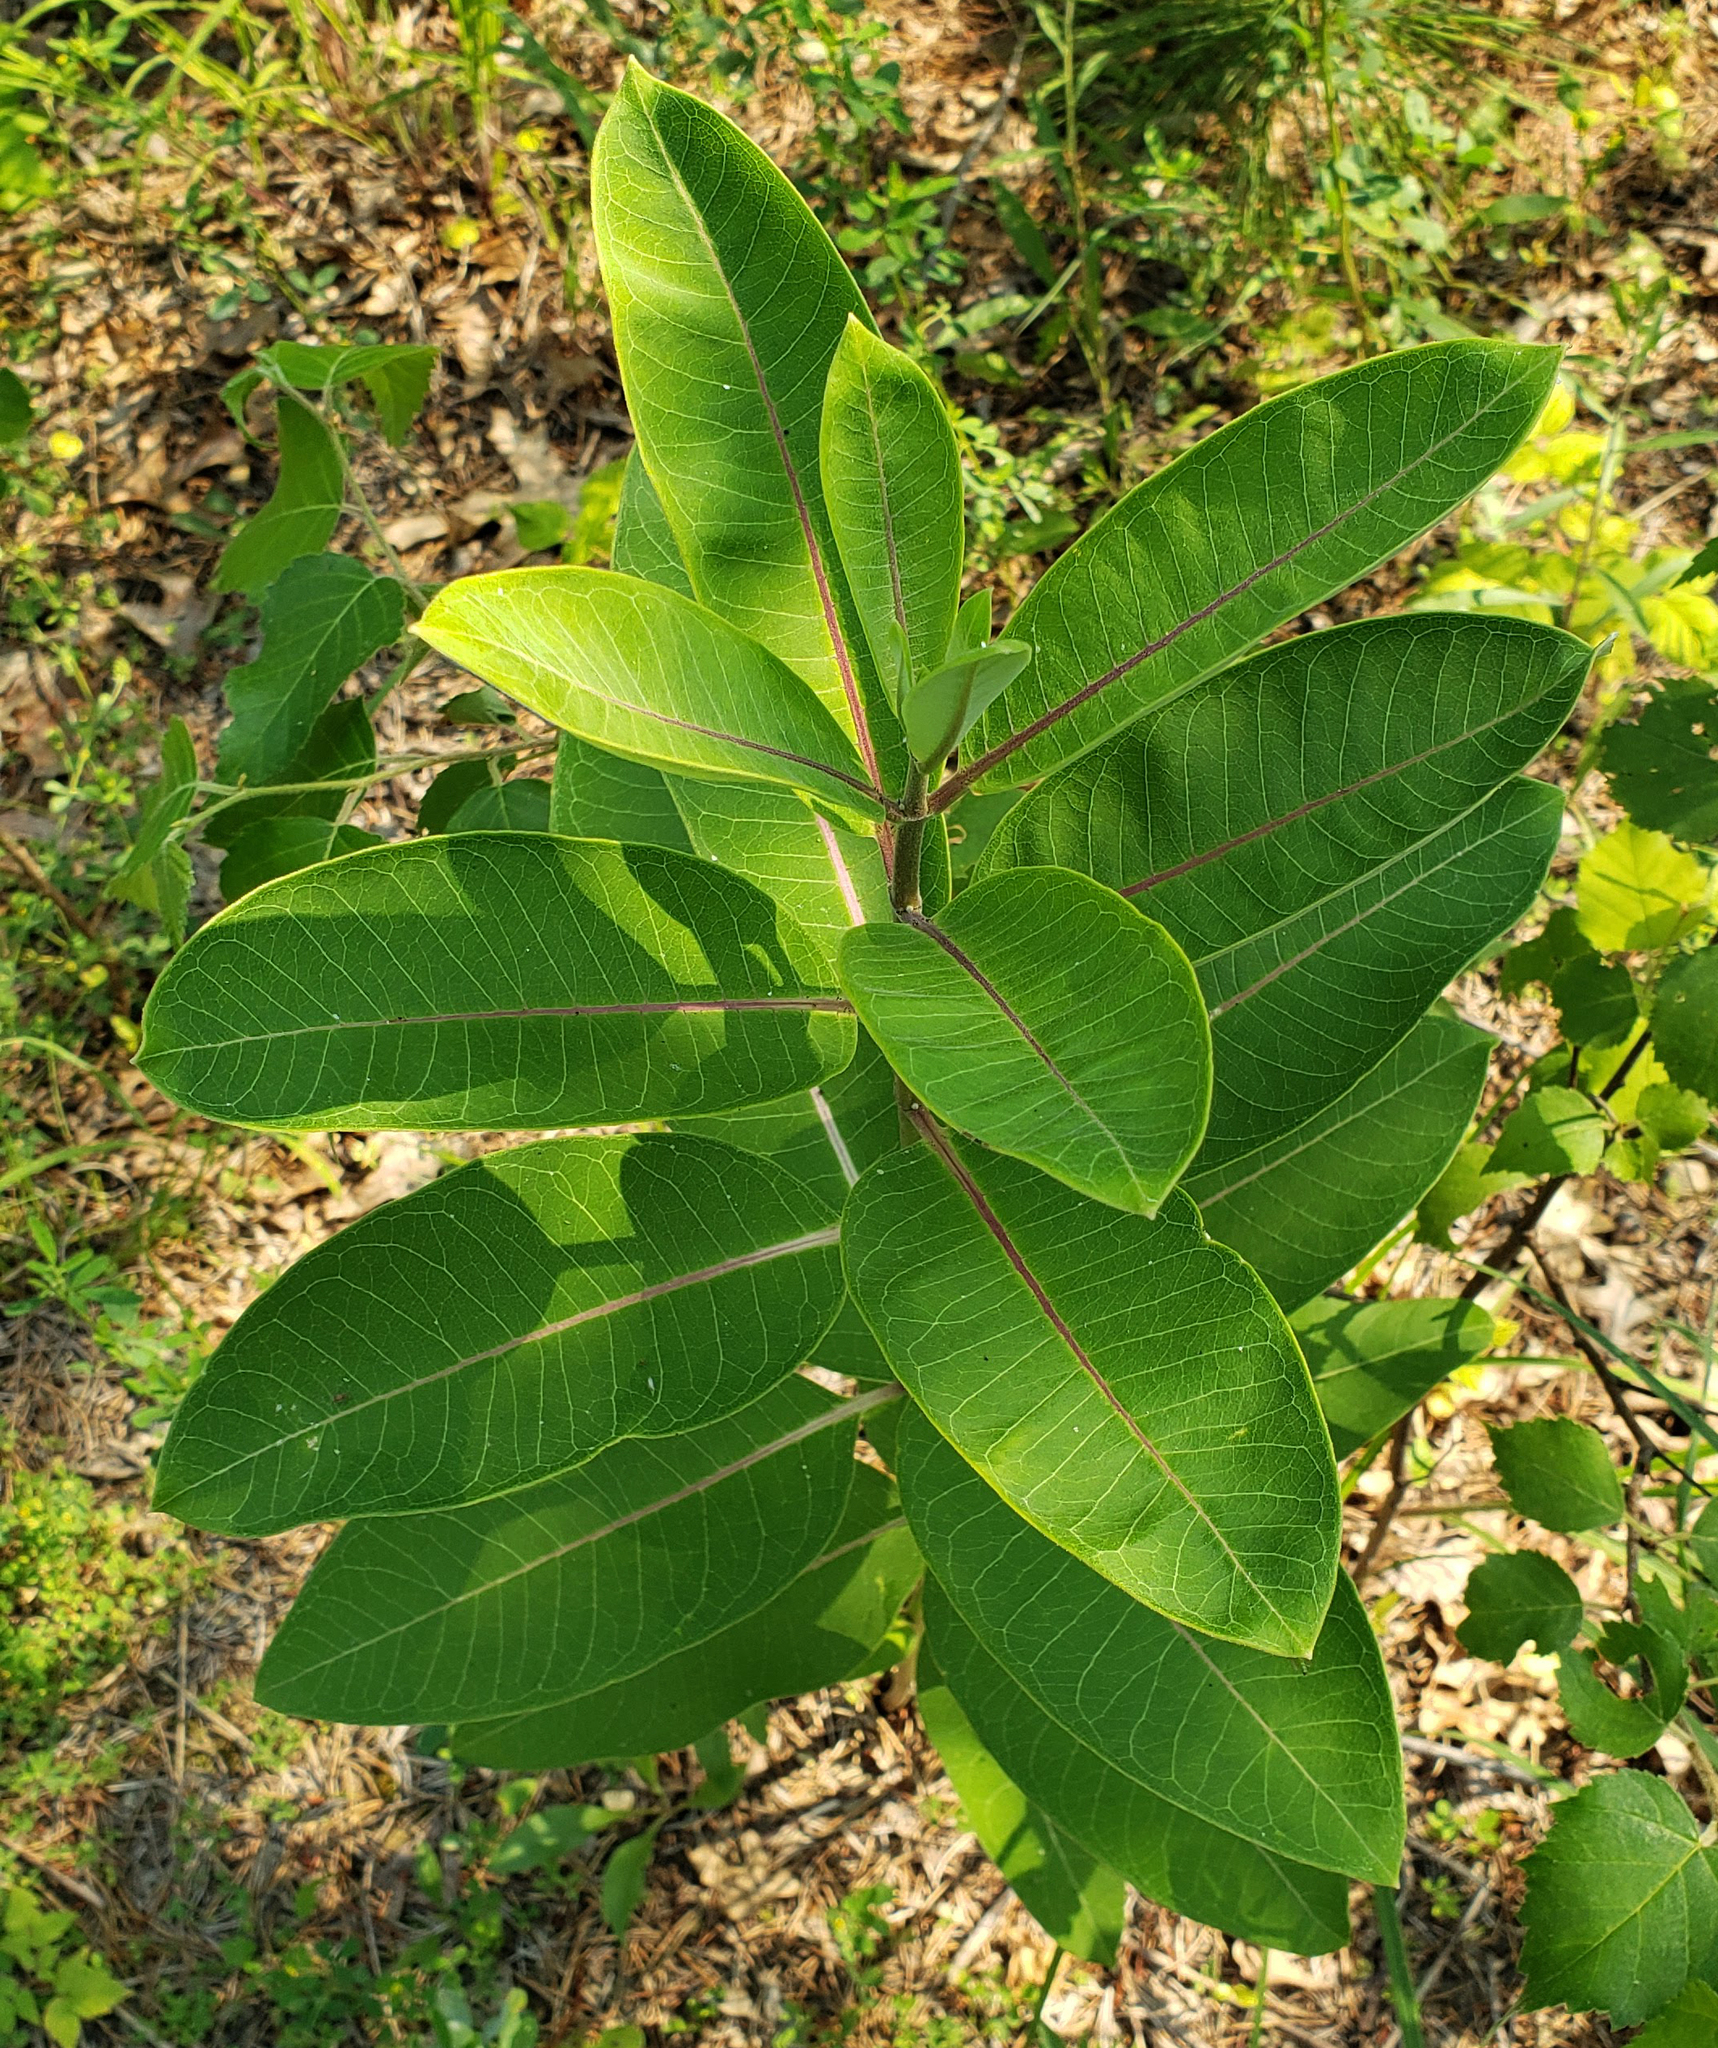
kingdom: Plantae
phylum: Tracheophyta
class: Magnoliopsida
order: Gentianales
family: Apocynaceae
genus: Asclepias
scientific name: Asclepias syriaca
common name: Common milkweed
